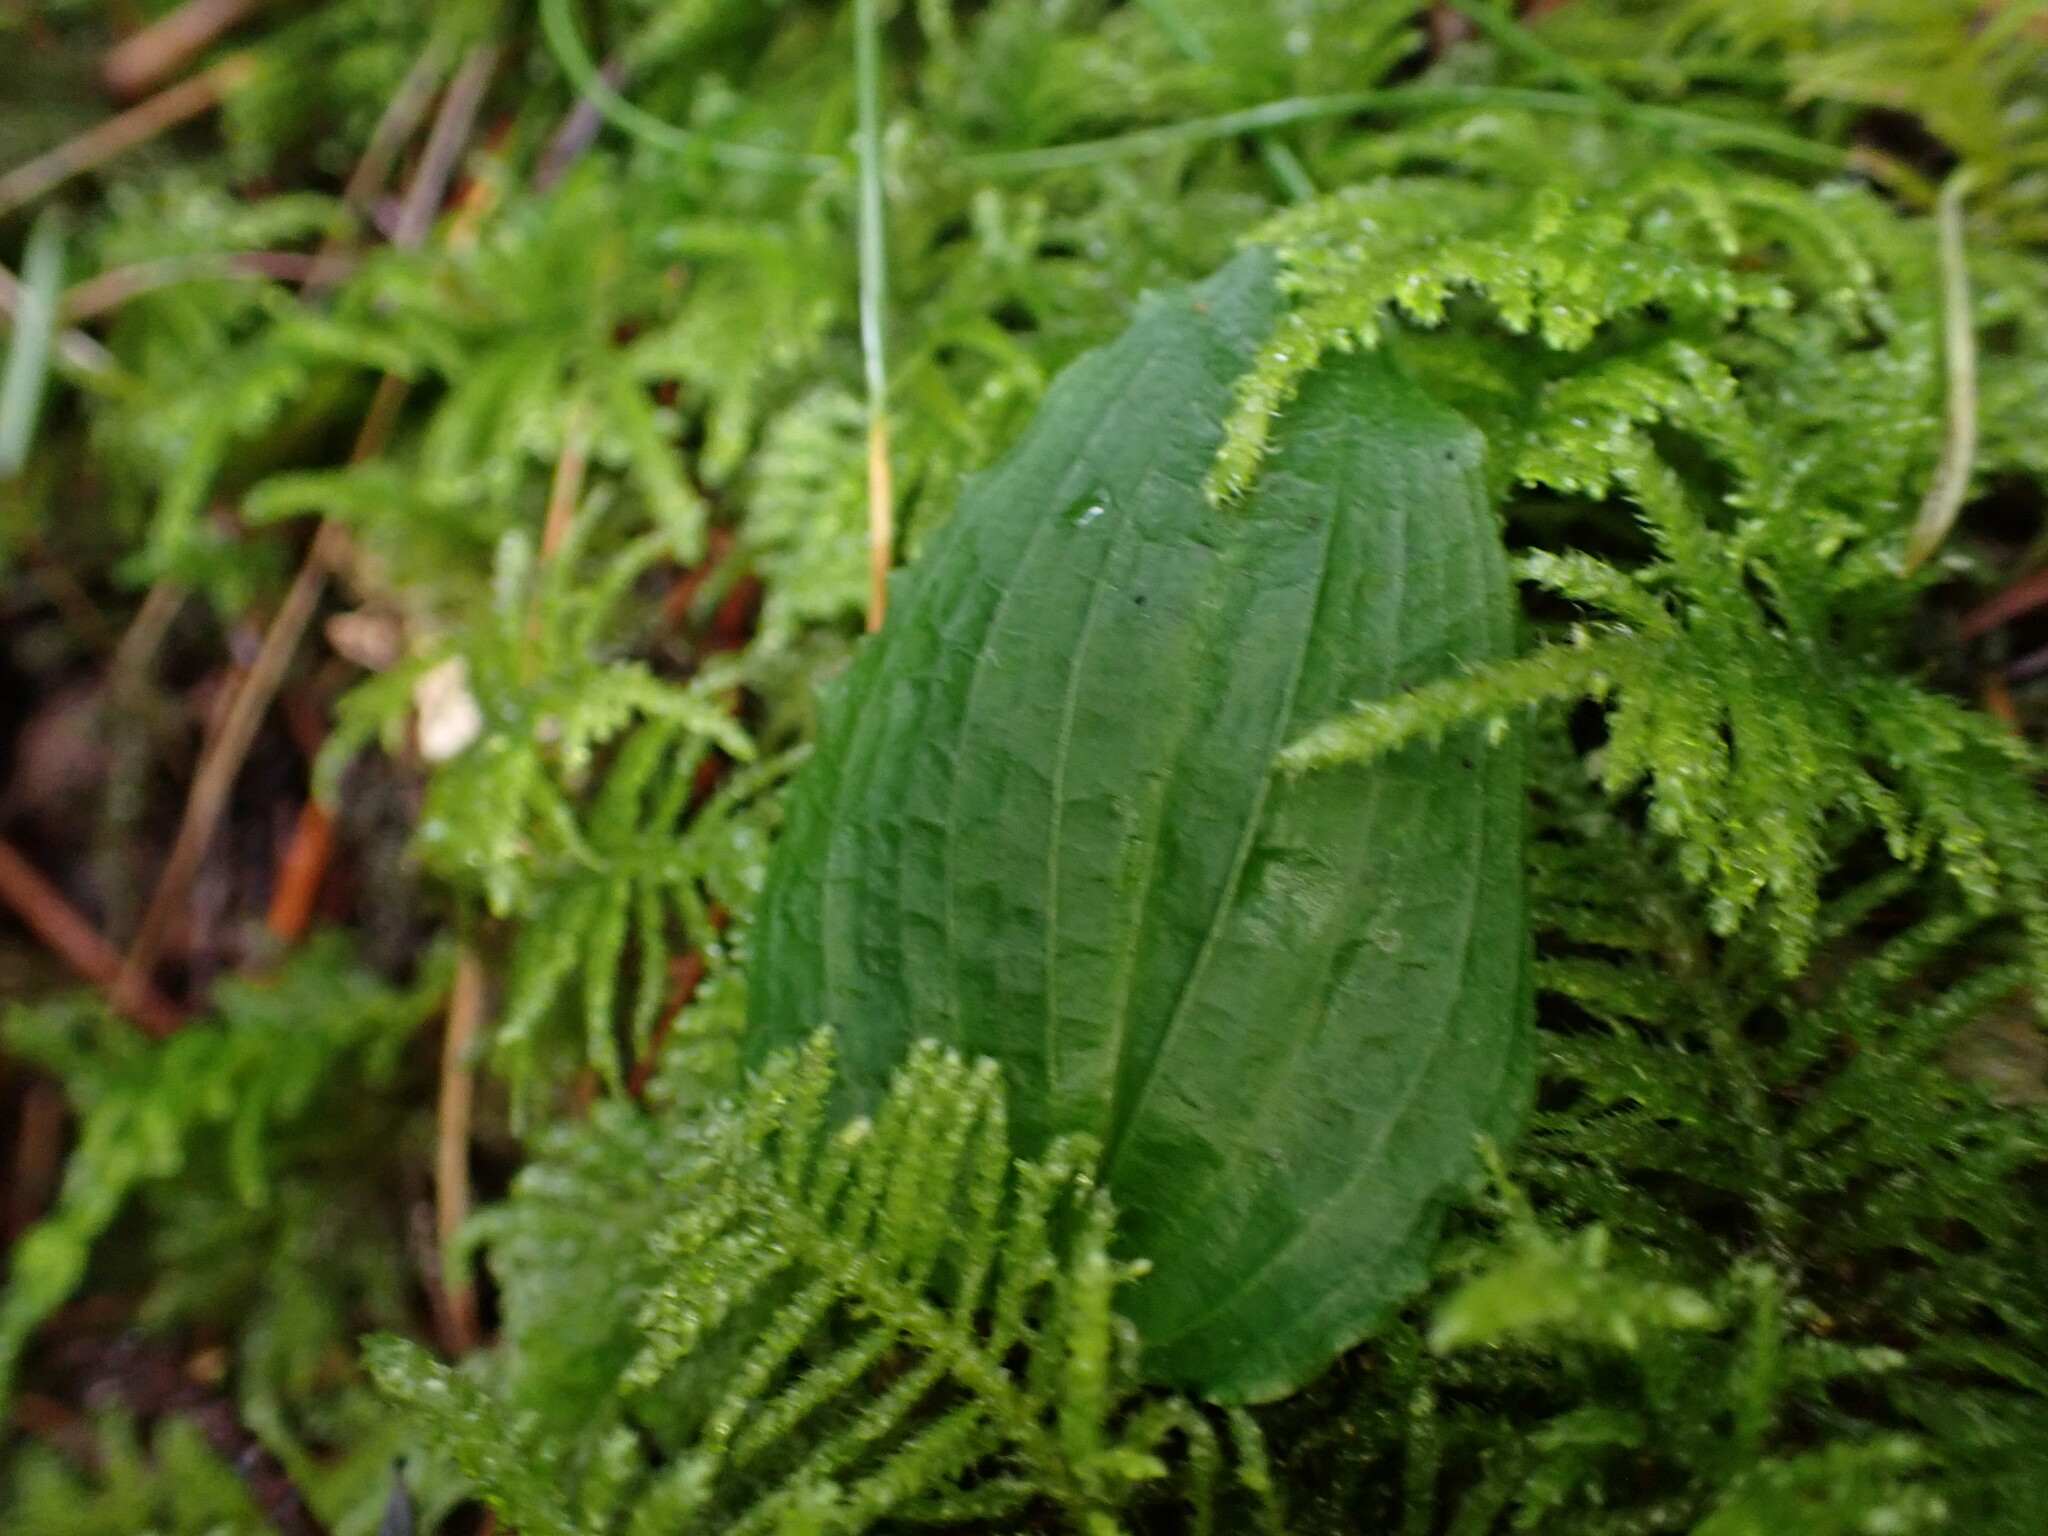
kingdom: Plantae
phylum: Tracheophyta
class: Liliopsida
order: Asparagales
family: Orchidaceae
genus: Calypso
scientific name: Calypso bulbosa
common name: Calypso
